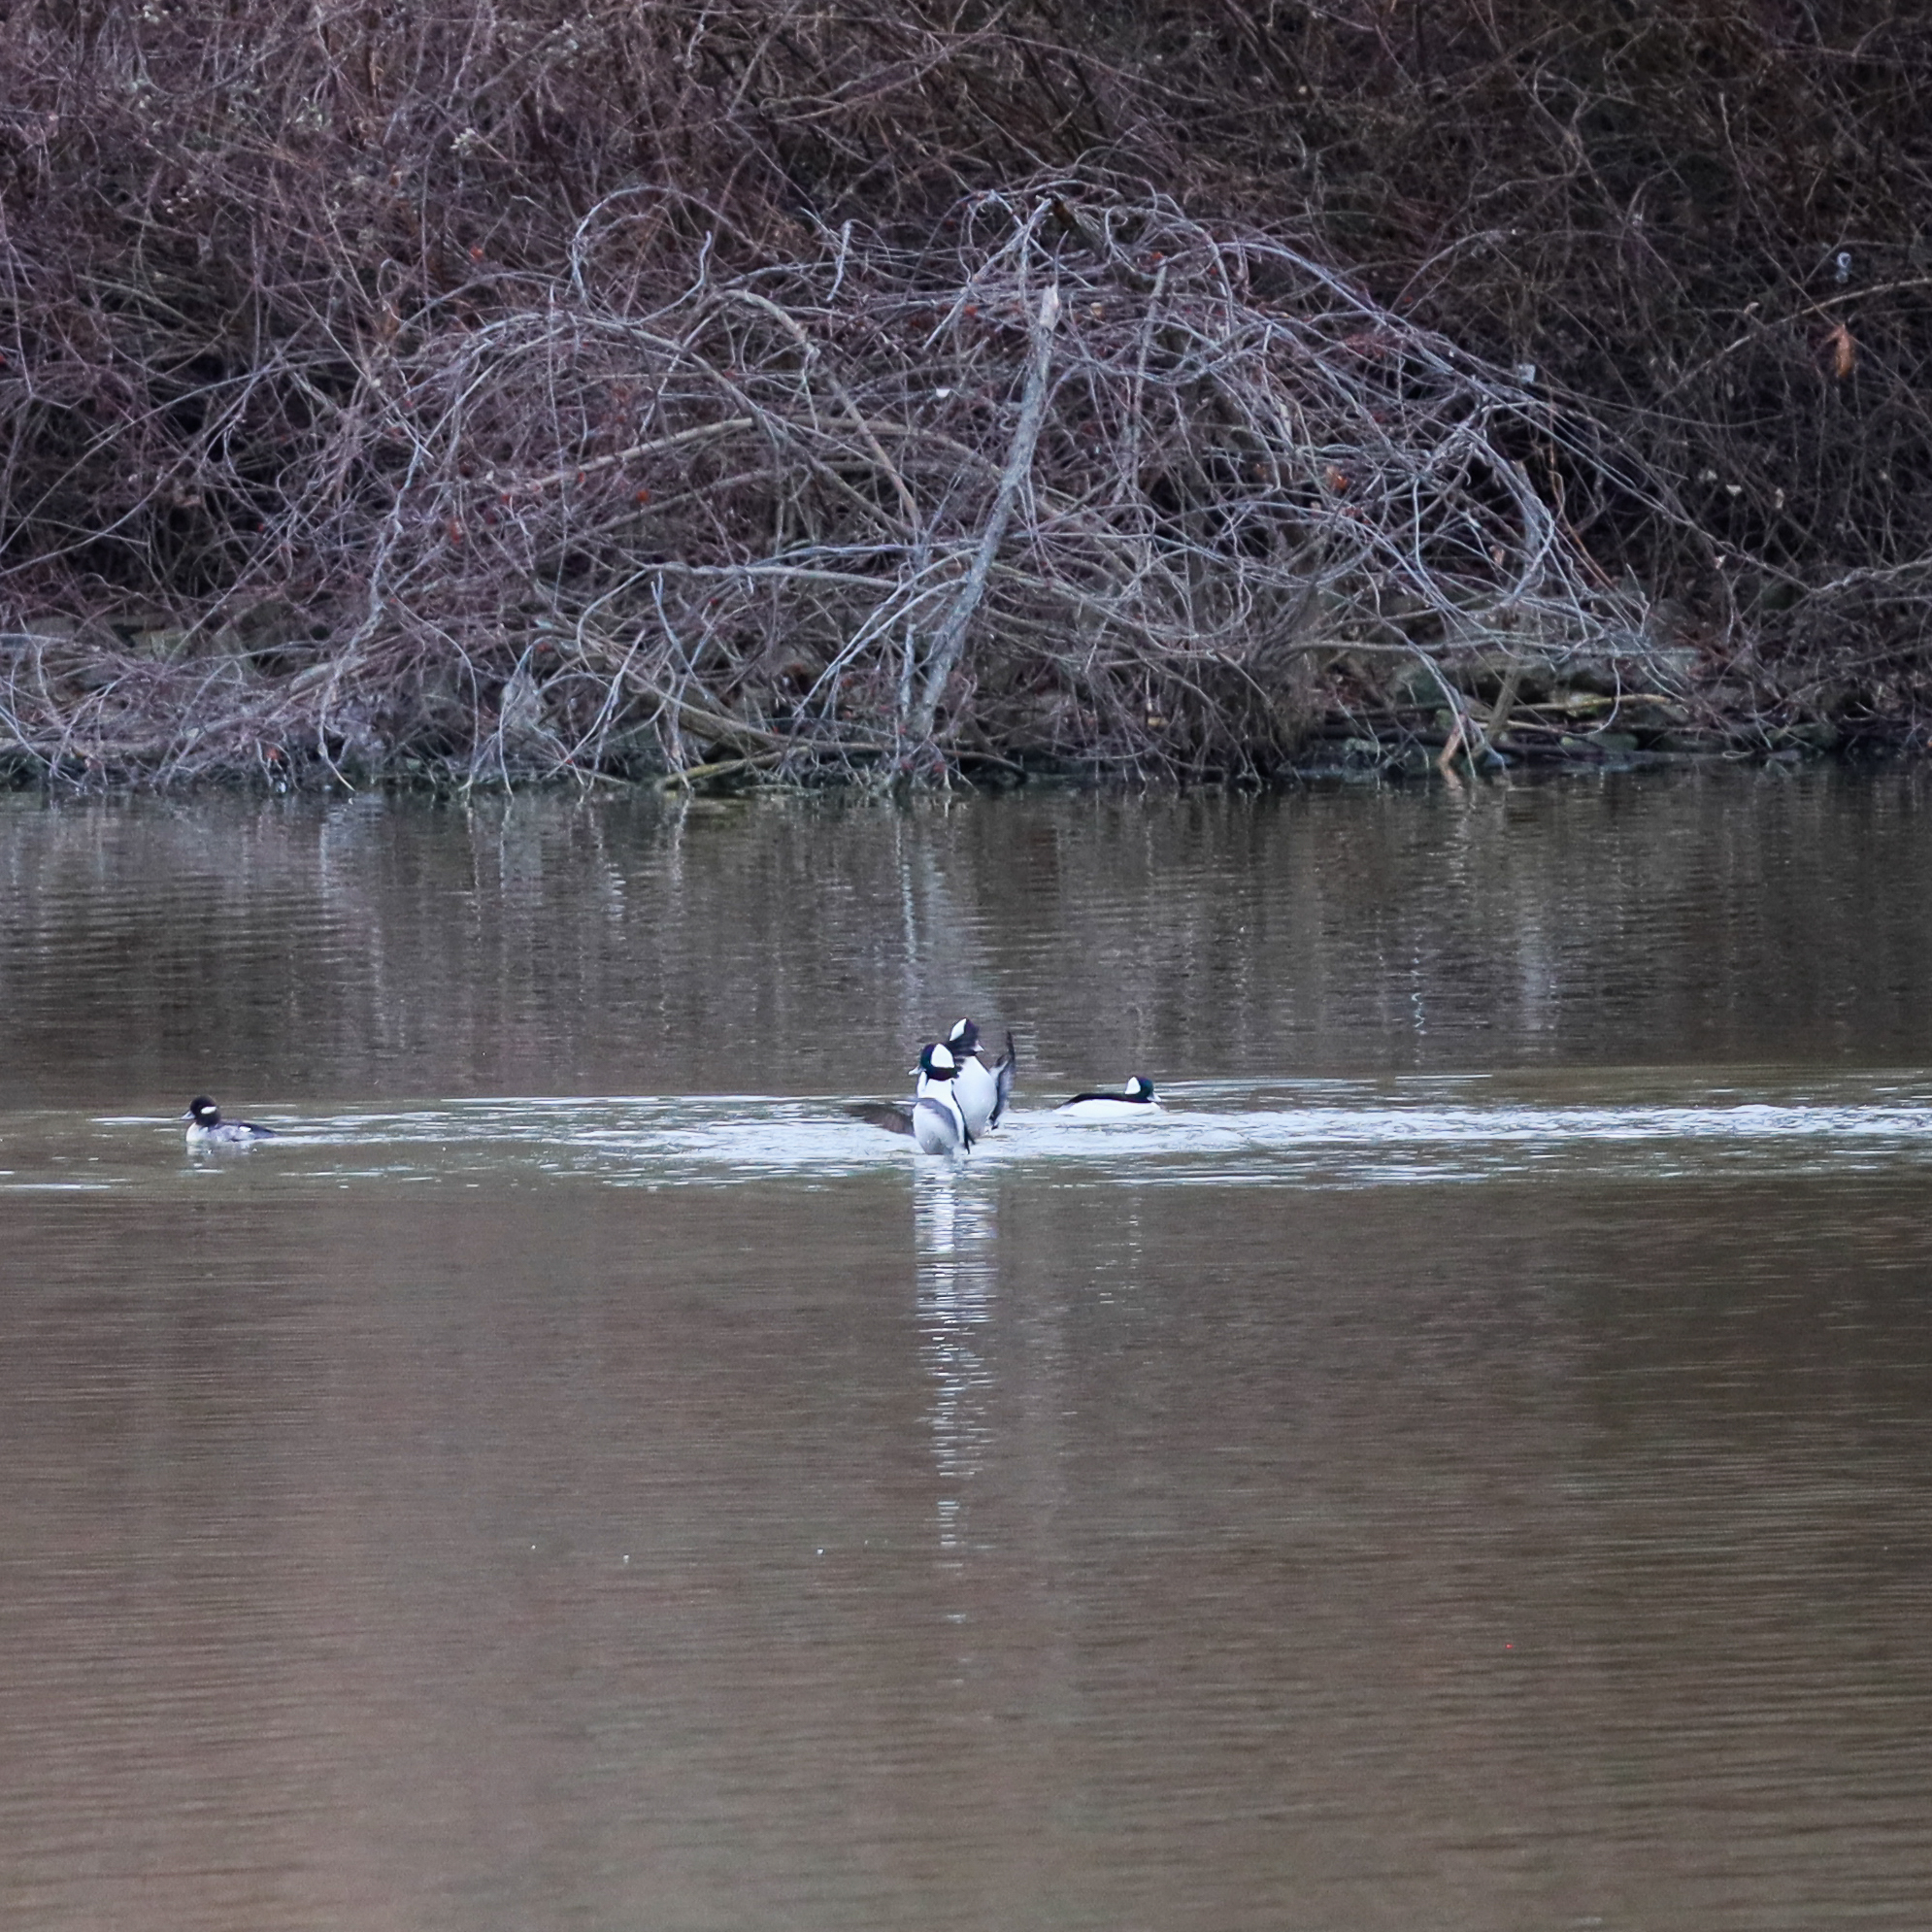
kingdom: Animalia
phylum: Chordata
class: Aves
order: Anseriformes
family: Anatidae
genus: Bucephala
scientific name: Bucephala albeola
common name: Bufflehead
